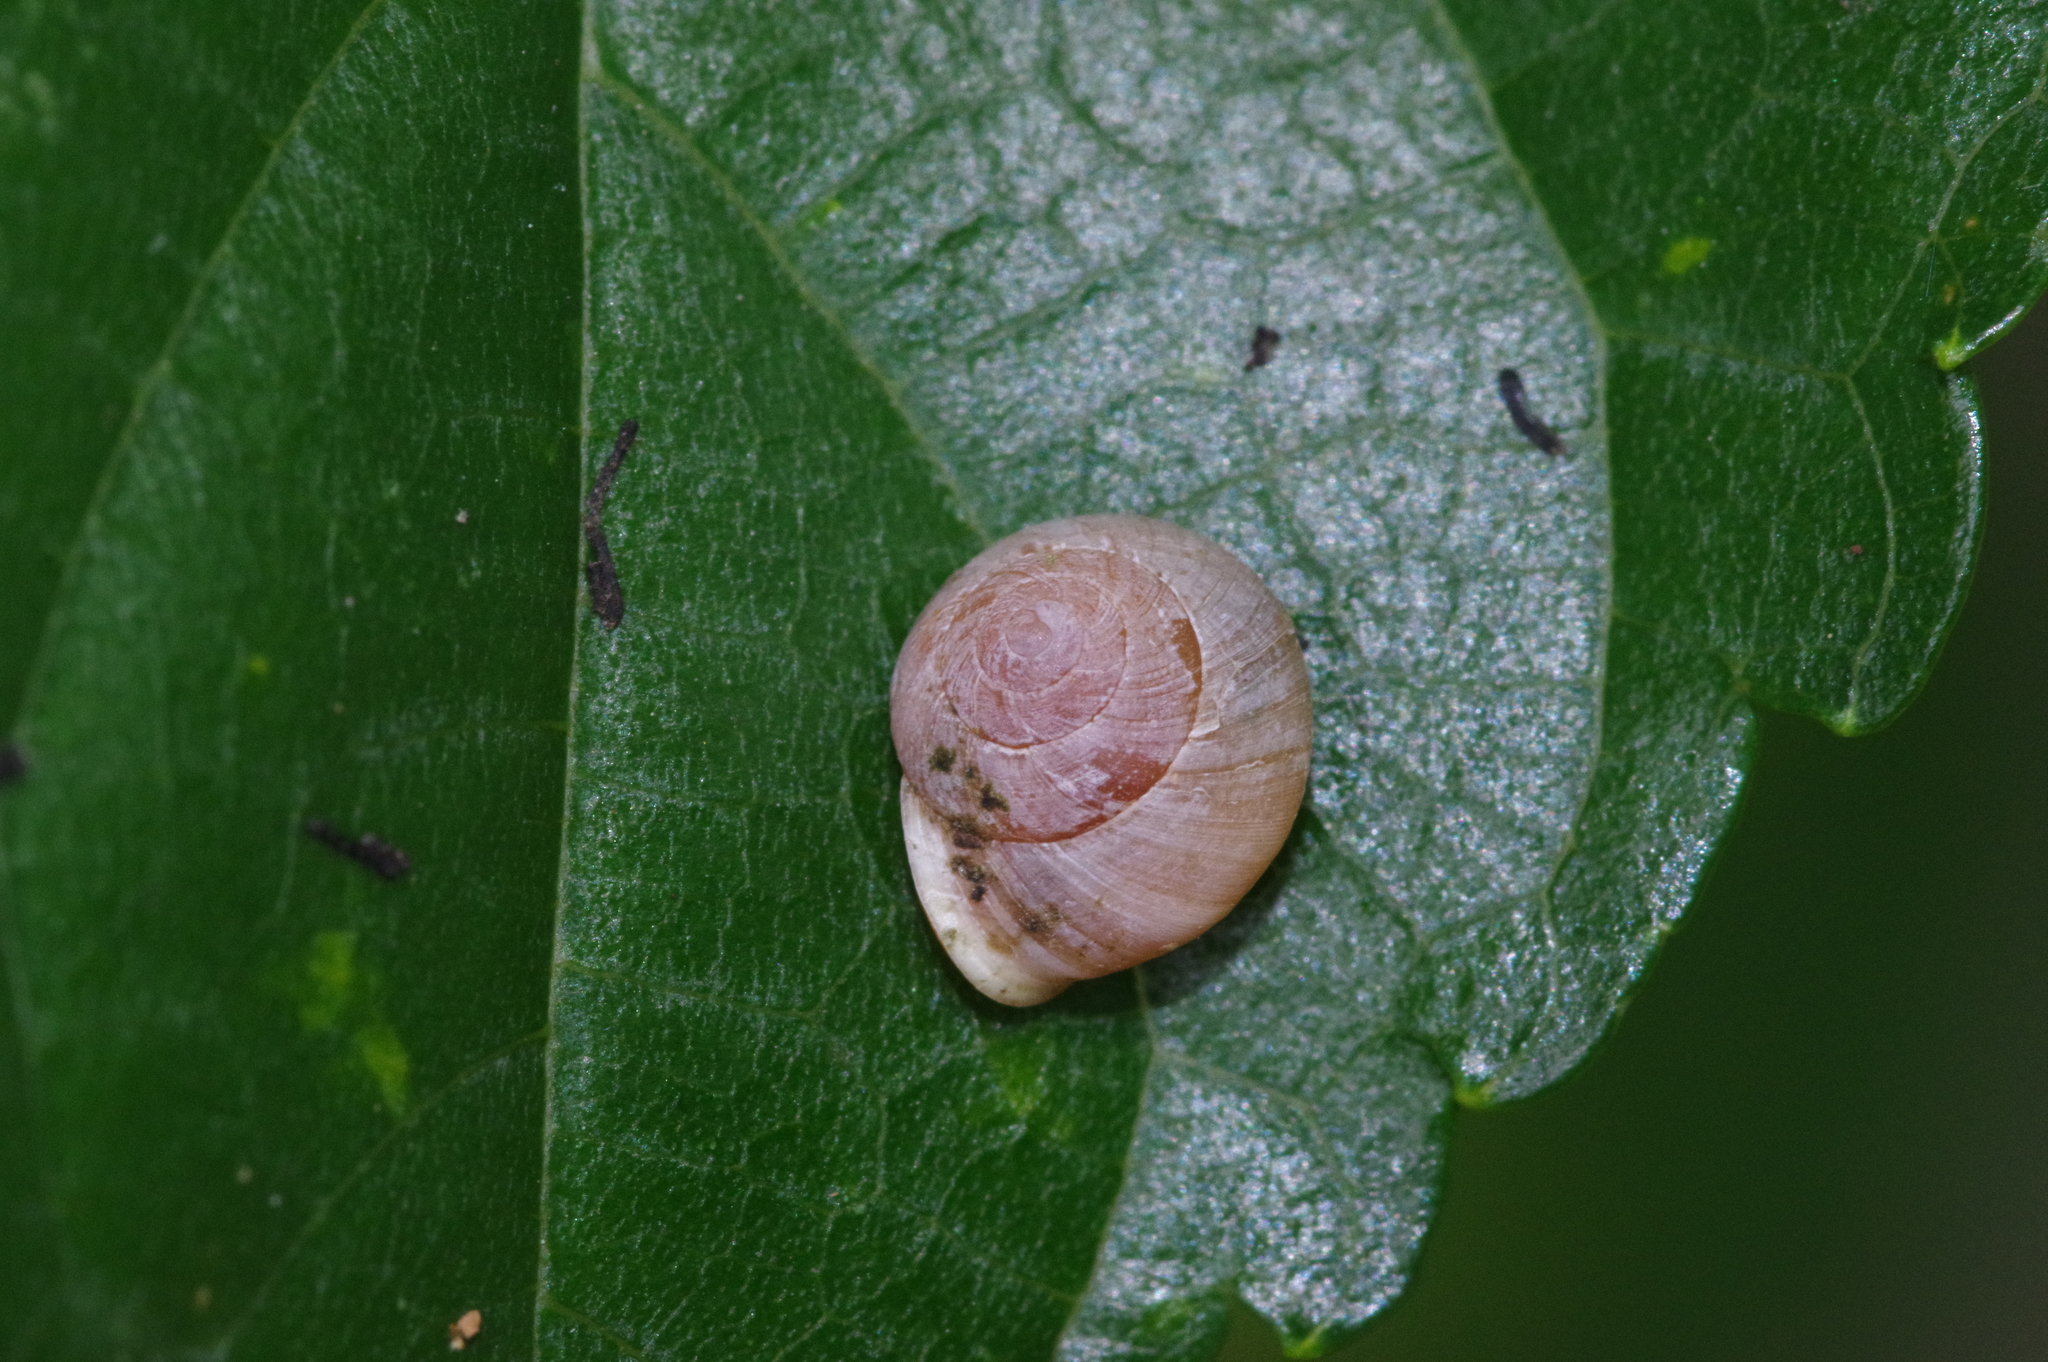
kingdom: Animalia
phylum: Mollusca
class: Gastropoda
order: Cycloneritida
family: Helicinidae
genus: Aphanoconia
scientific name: Aphanoconia verecunda
